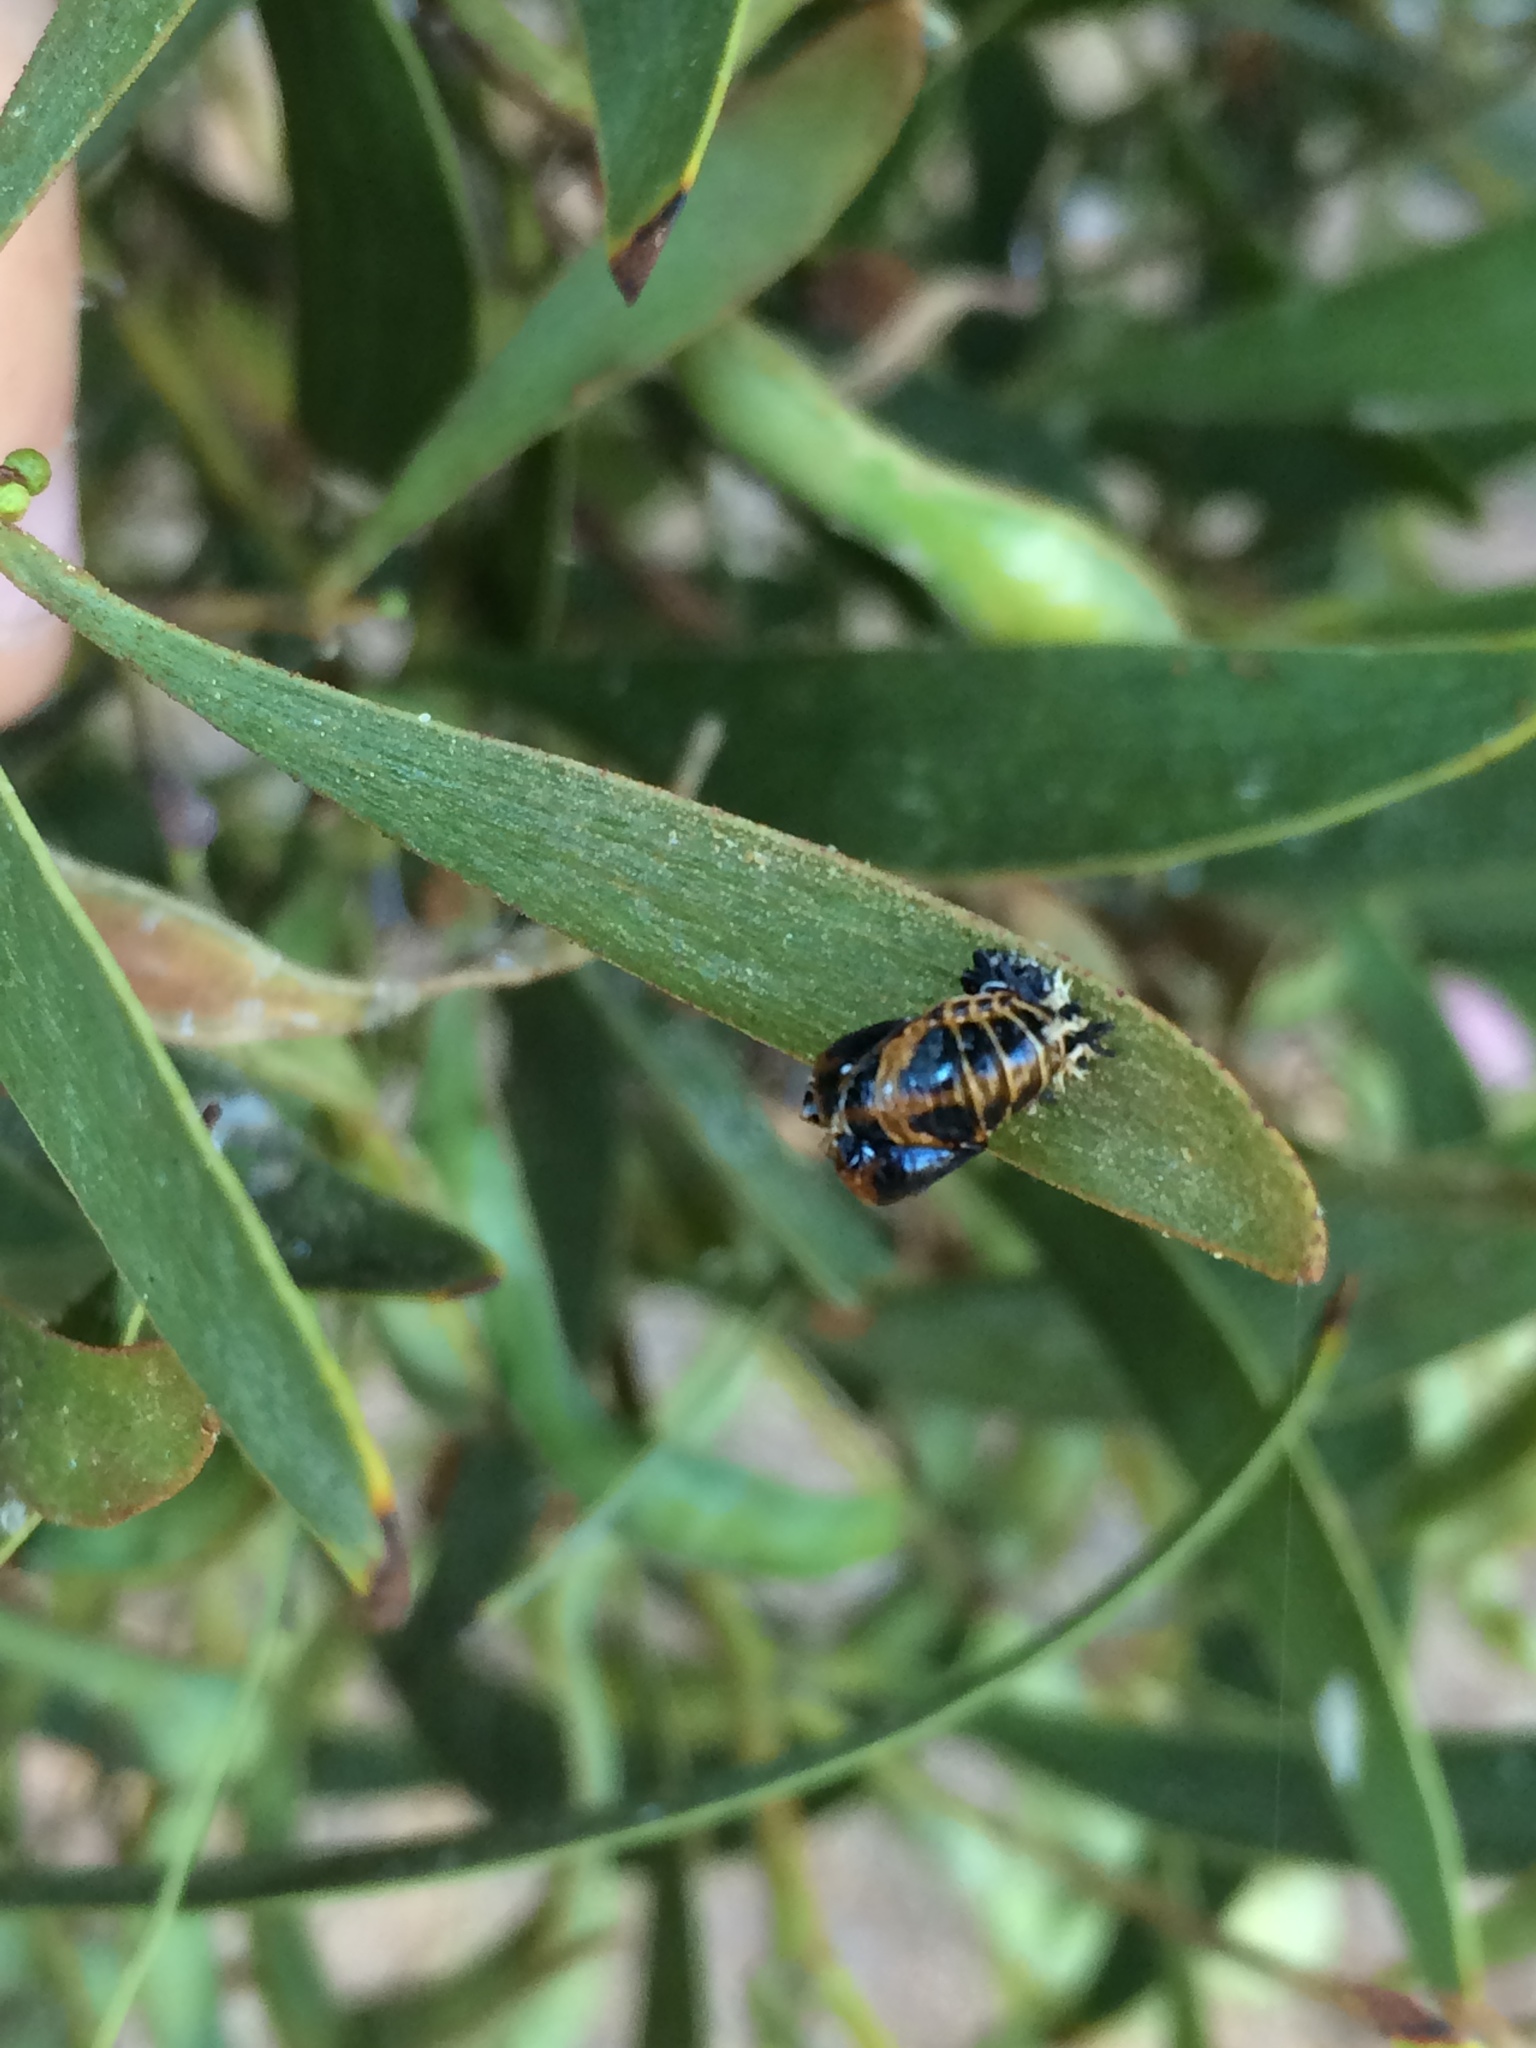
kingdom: Animalia
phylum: Arthropoda
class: Insecta
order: Coleoptera
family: Coccinellidae
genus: Harmonia
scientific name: Harmonia axyridis
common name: Harlequin ladybird
